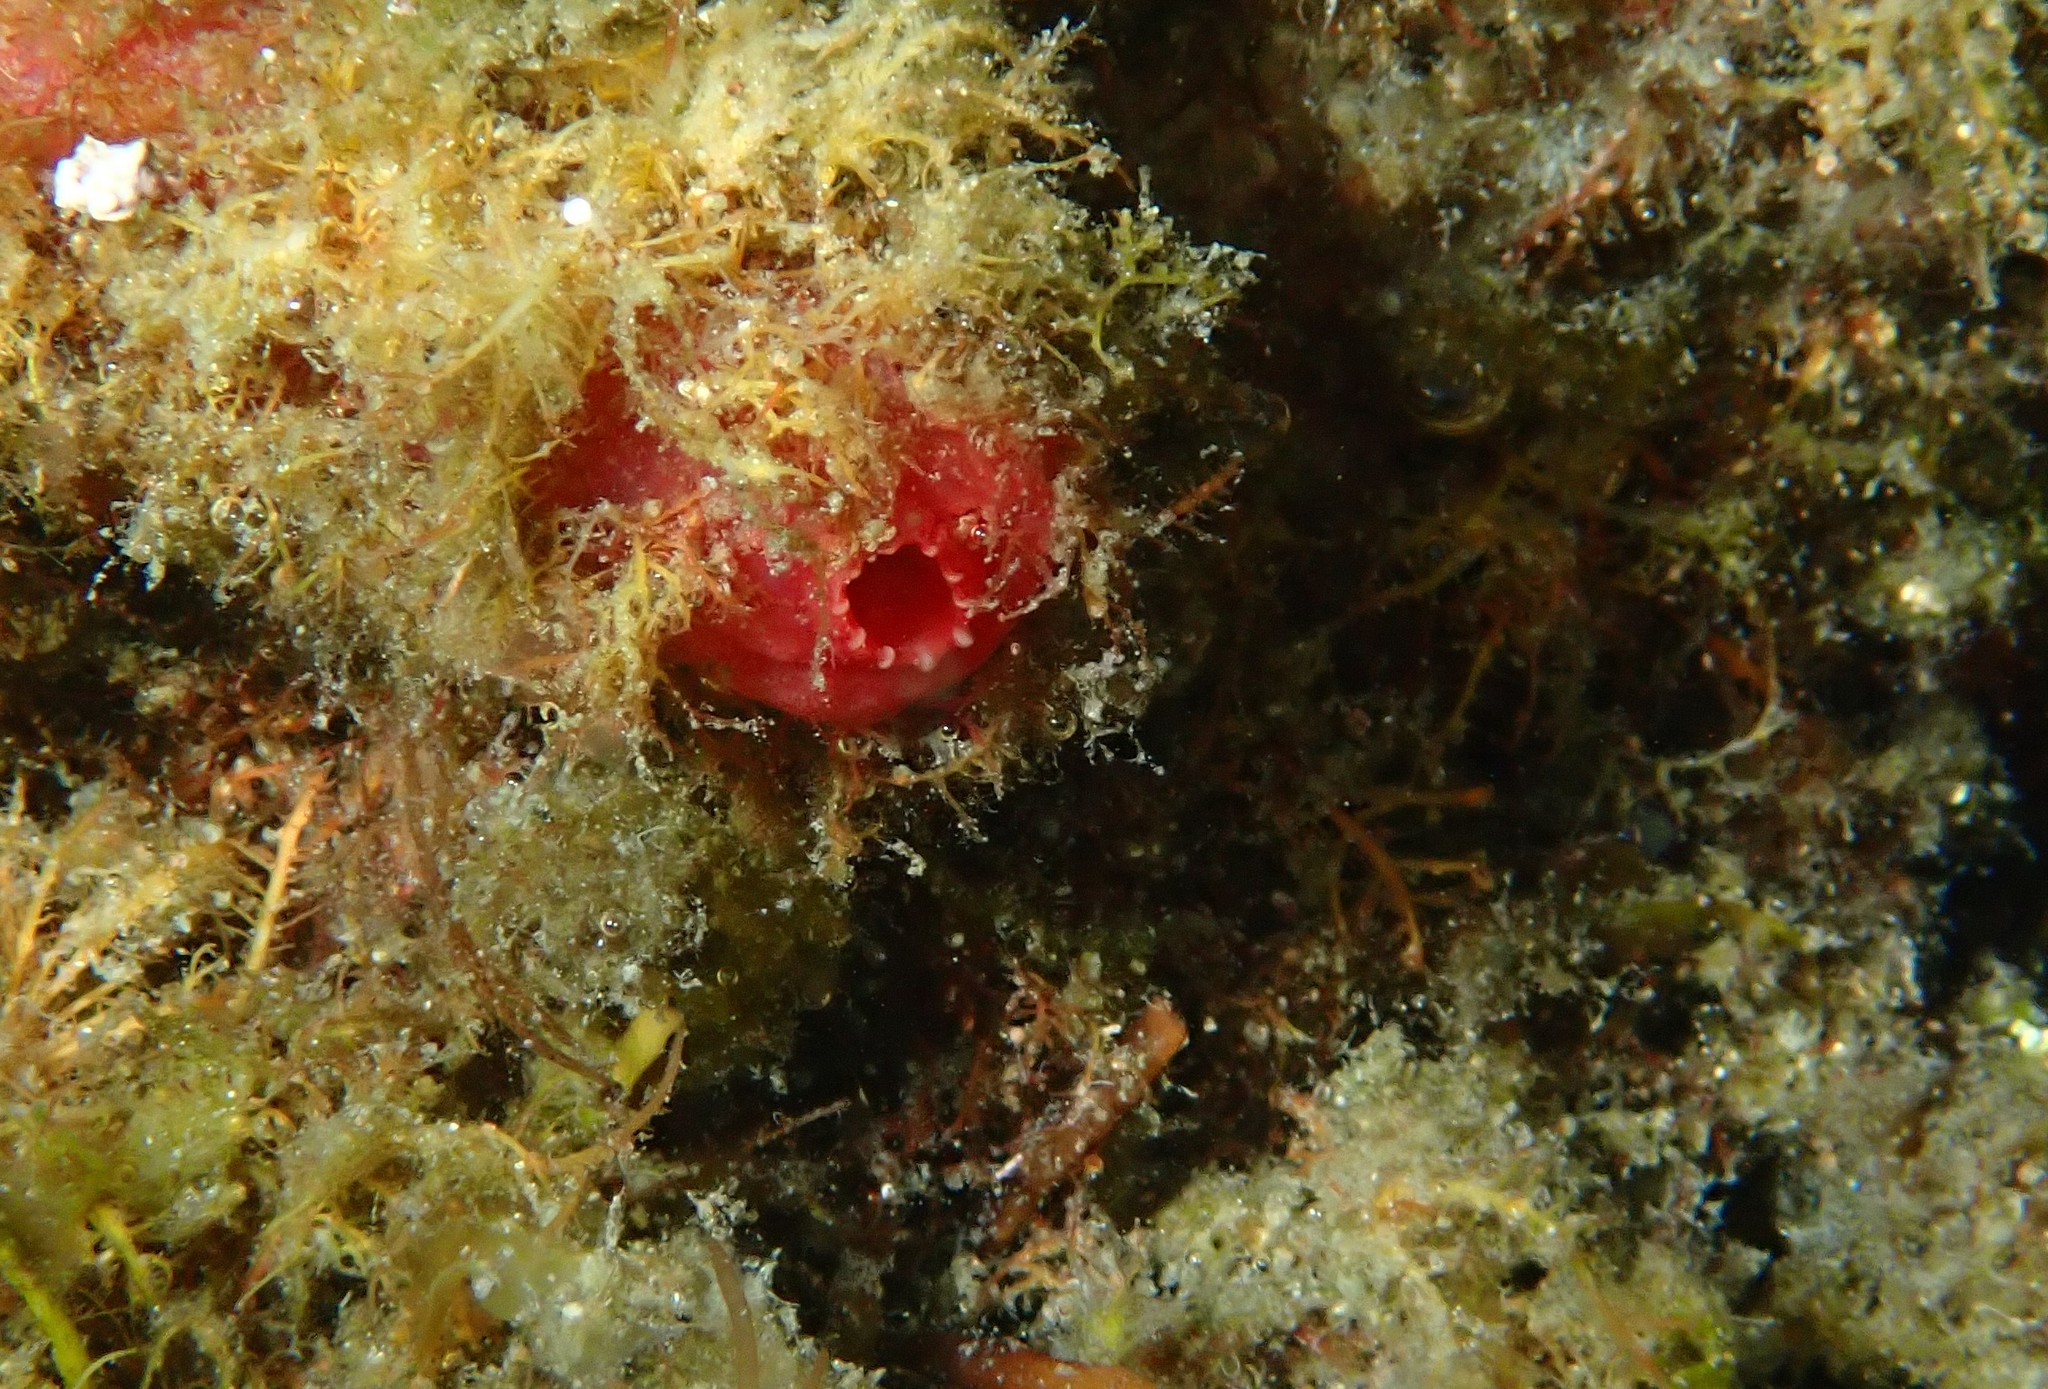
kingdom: Animalia
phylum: Chordata
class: Ascidiacea
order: Phlebobranchia
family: Ascidiidae
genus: Ascidia
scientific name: Ascidia mentula
